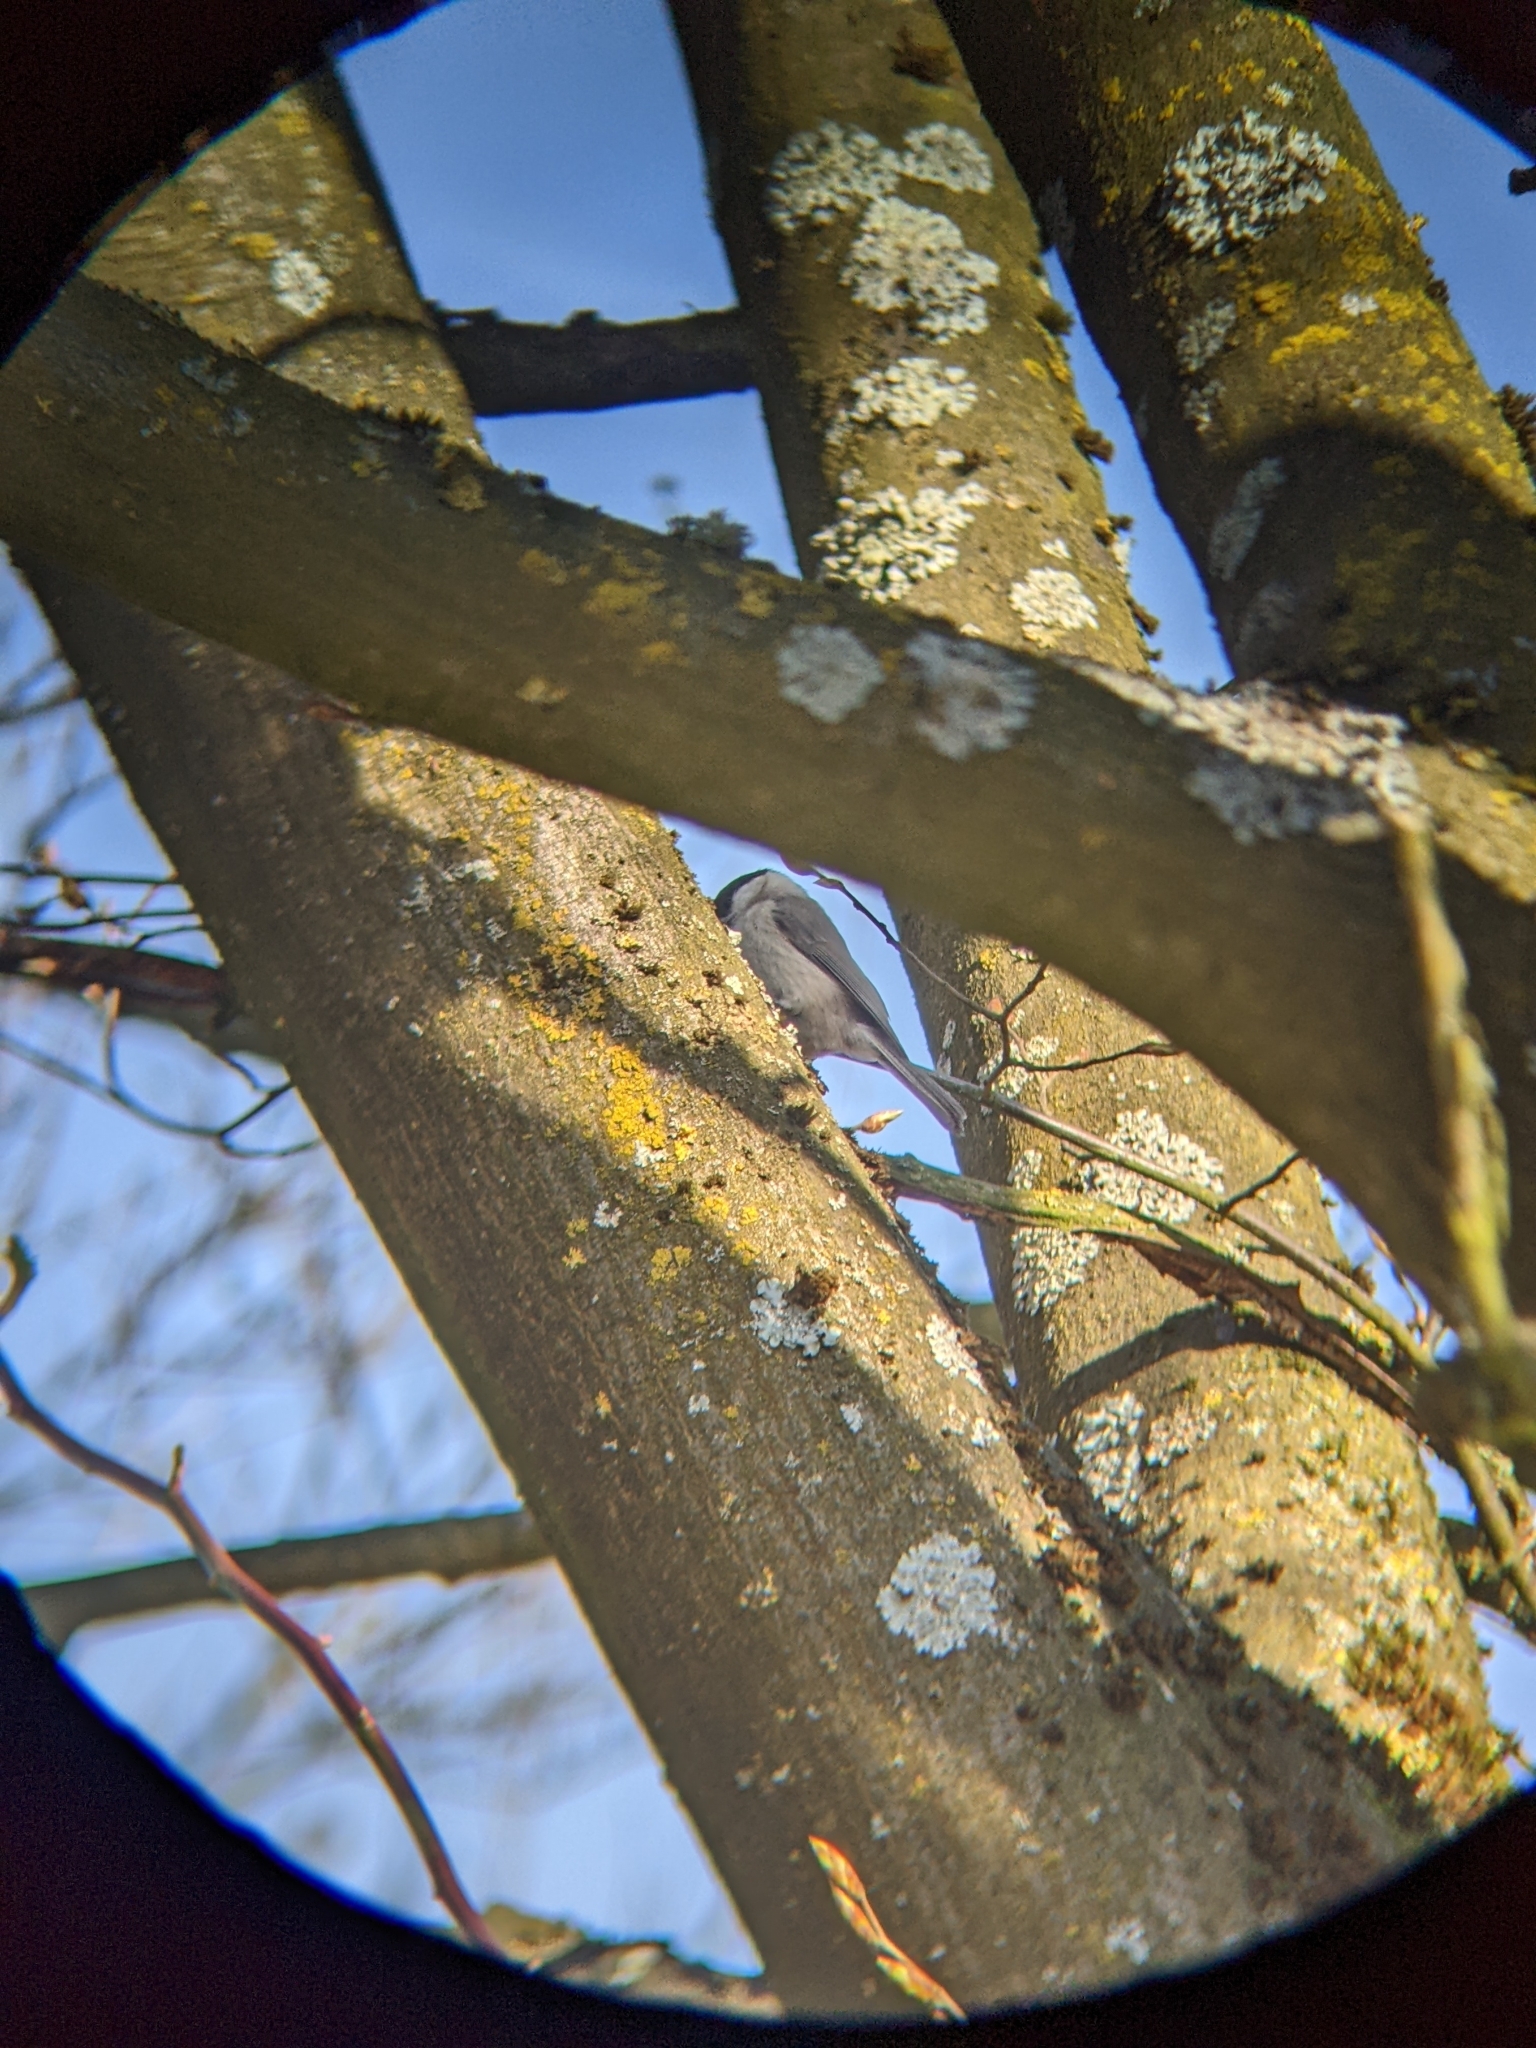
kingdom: Animalia
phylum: Chordata
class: Aves
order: Passeriformes
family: Paridae
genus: Poecile
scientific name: Poecile palustris
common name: Marsh tit
